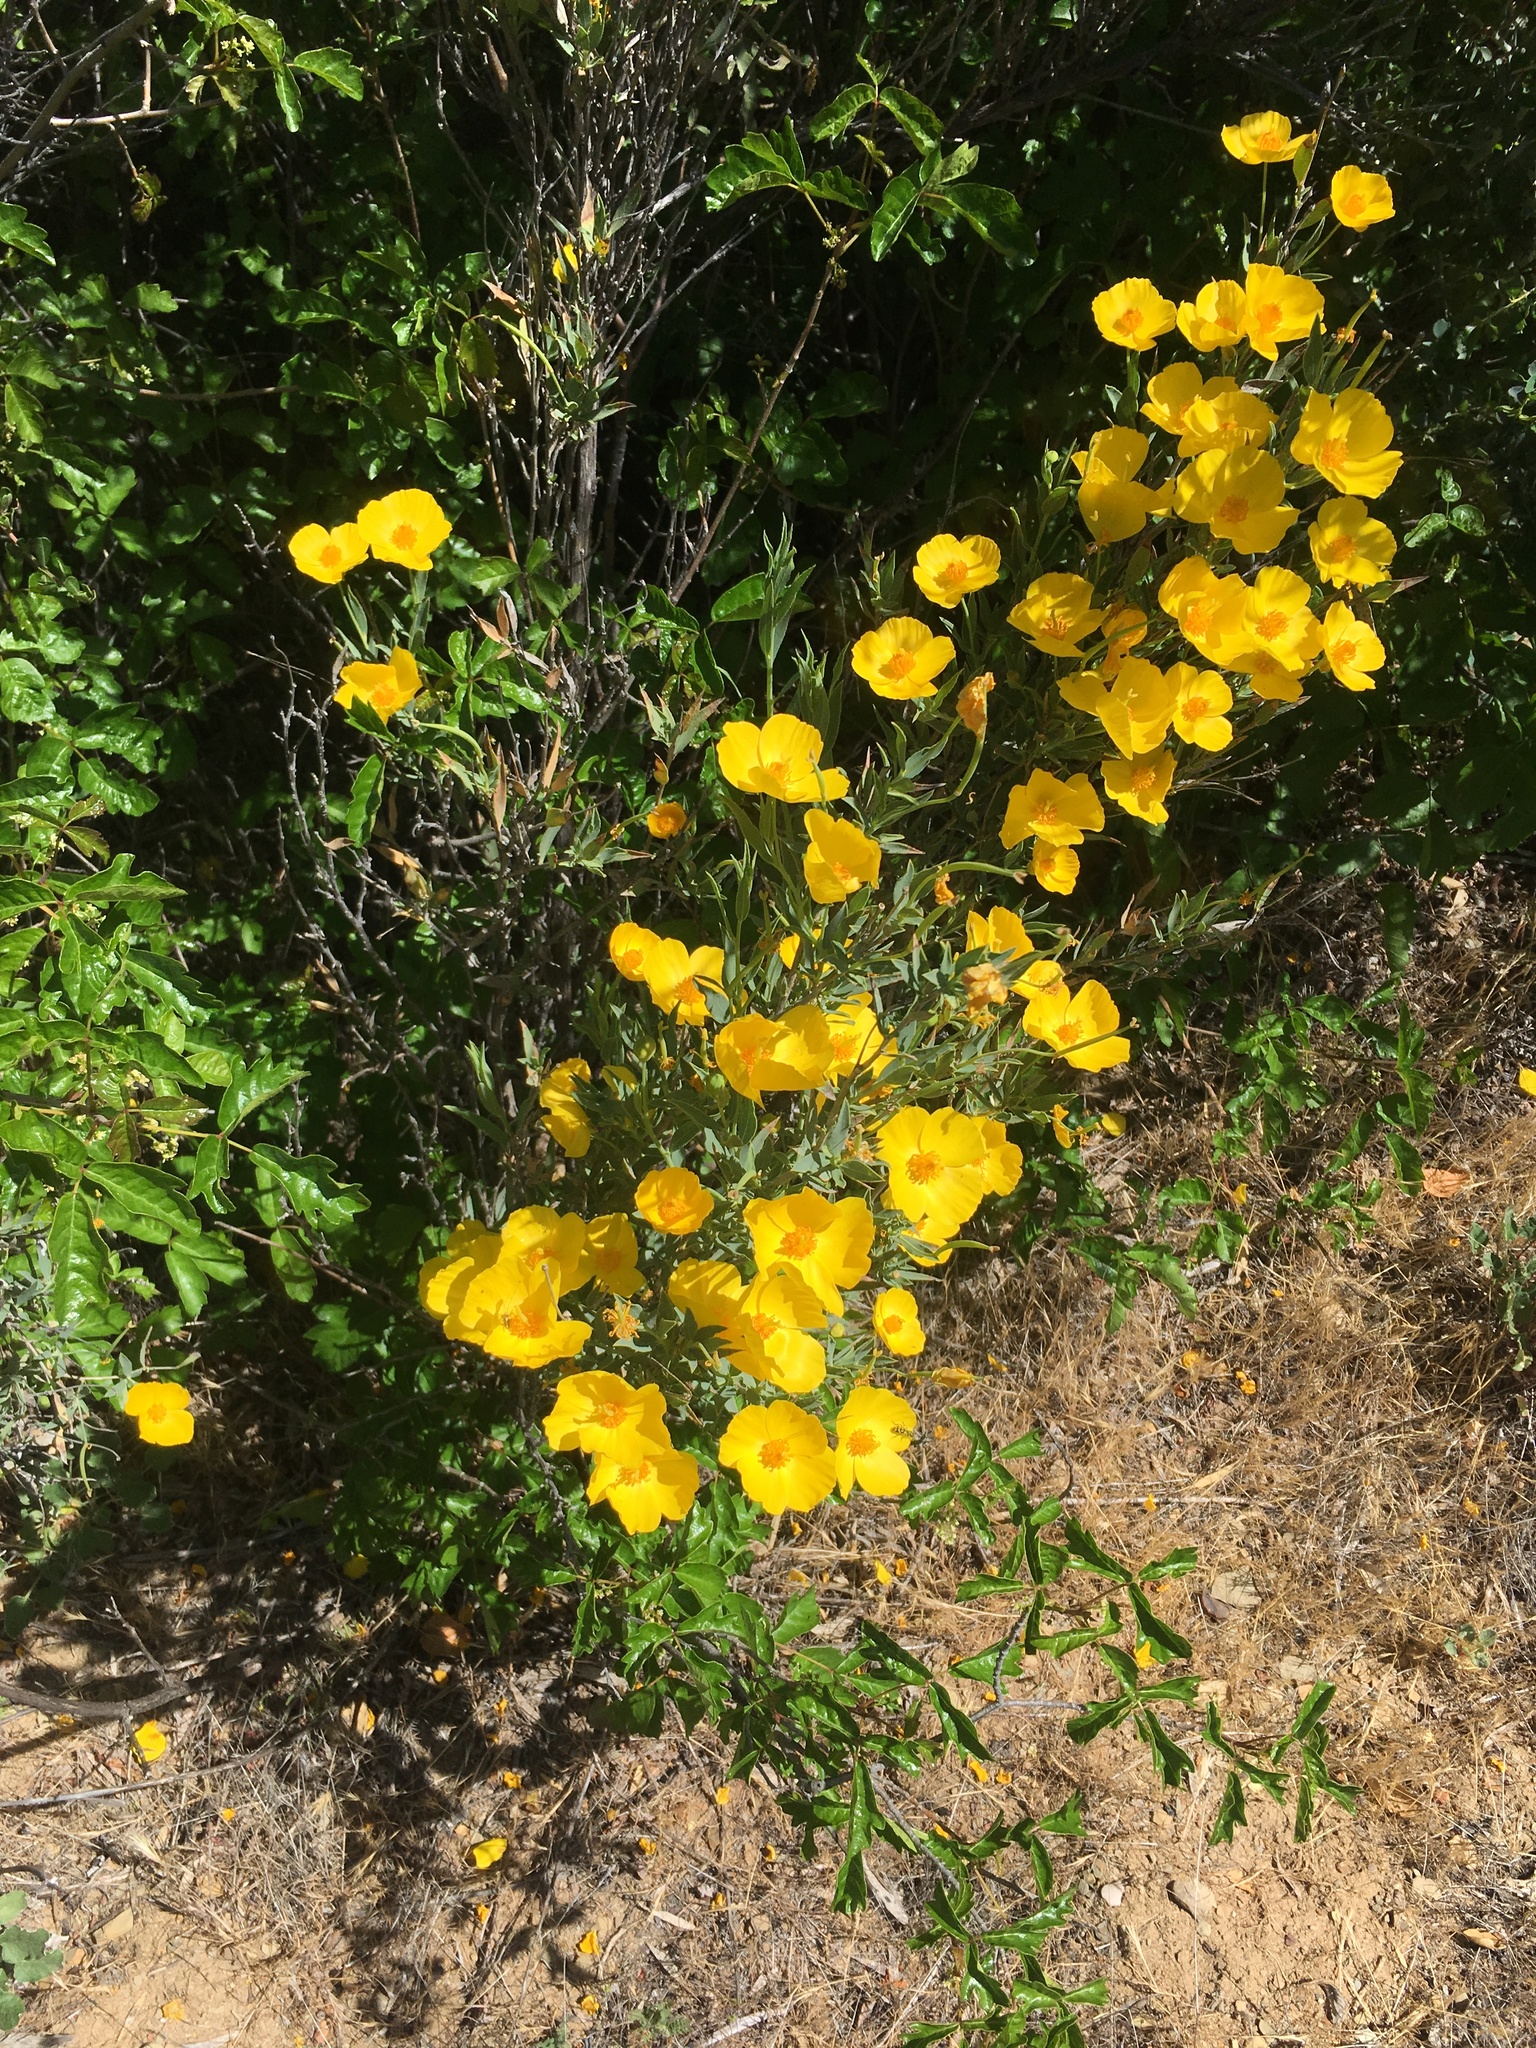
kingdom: Plantae
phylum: Tracheophyta
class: Magnoliopsida
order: Ranunculales
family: Papaveraceae
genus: Dendromecon
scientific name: Dendromecon rigida
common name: Tree poppy
